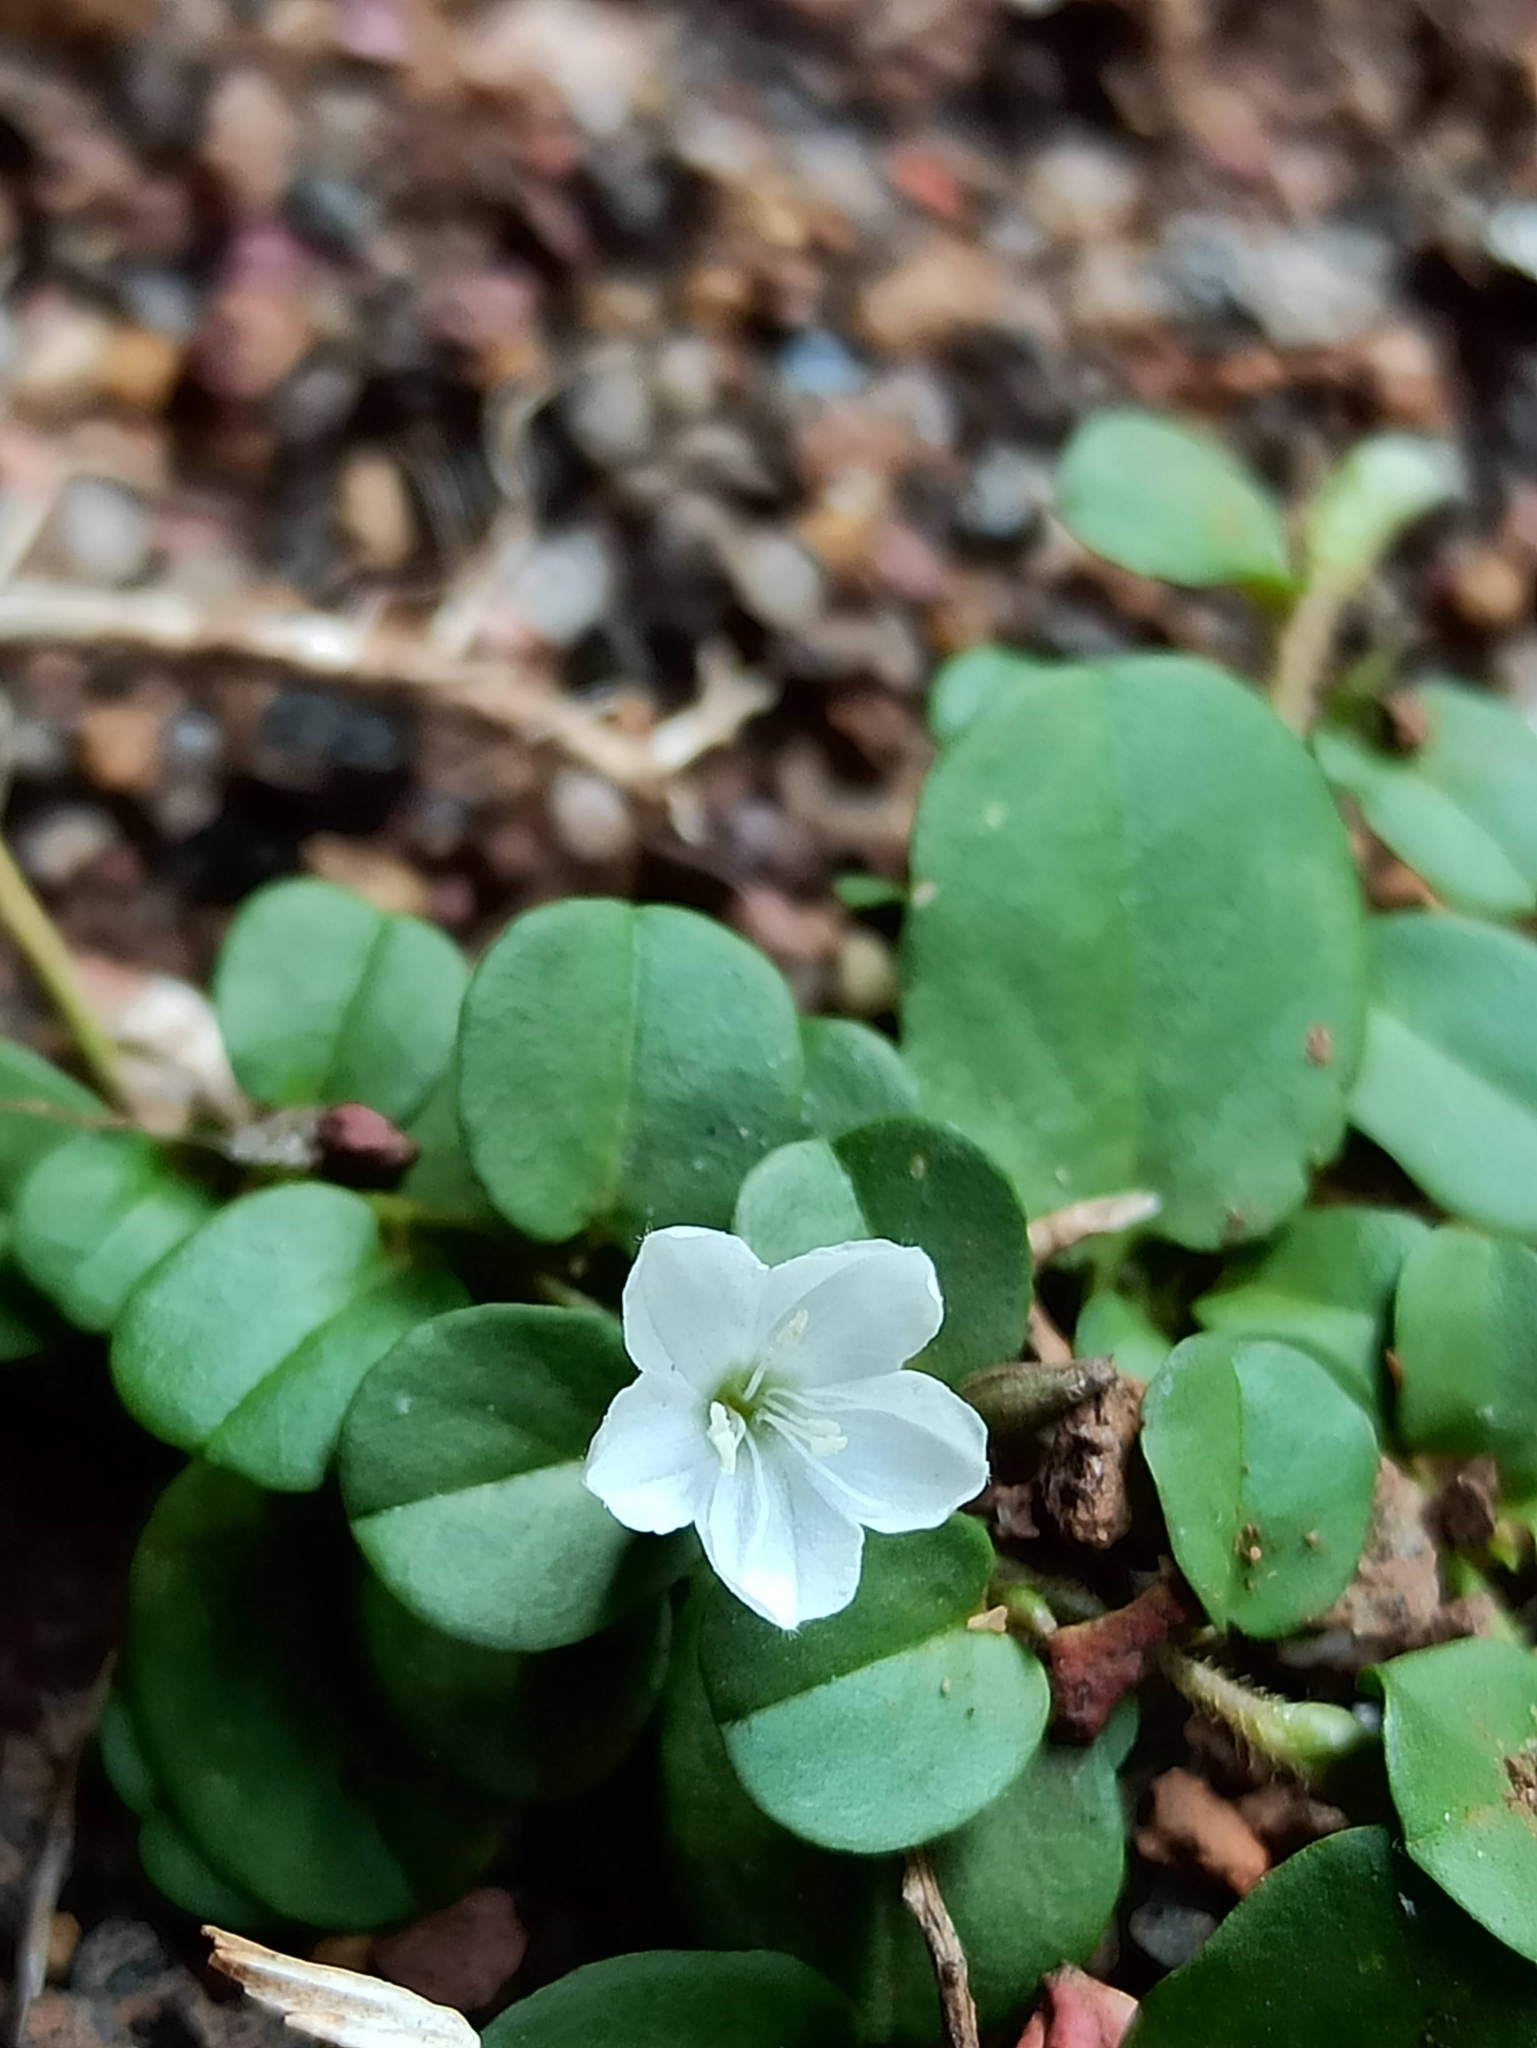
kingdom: Plantae
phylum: Tracheophyta
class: Magnoliopsida
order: Solanales
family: Convolvulaceae
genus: Evolvulus
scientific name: Evolvulus nummularius
